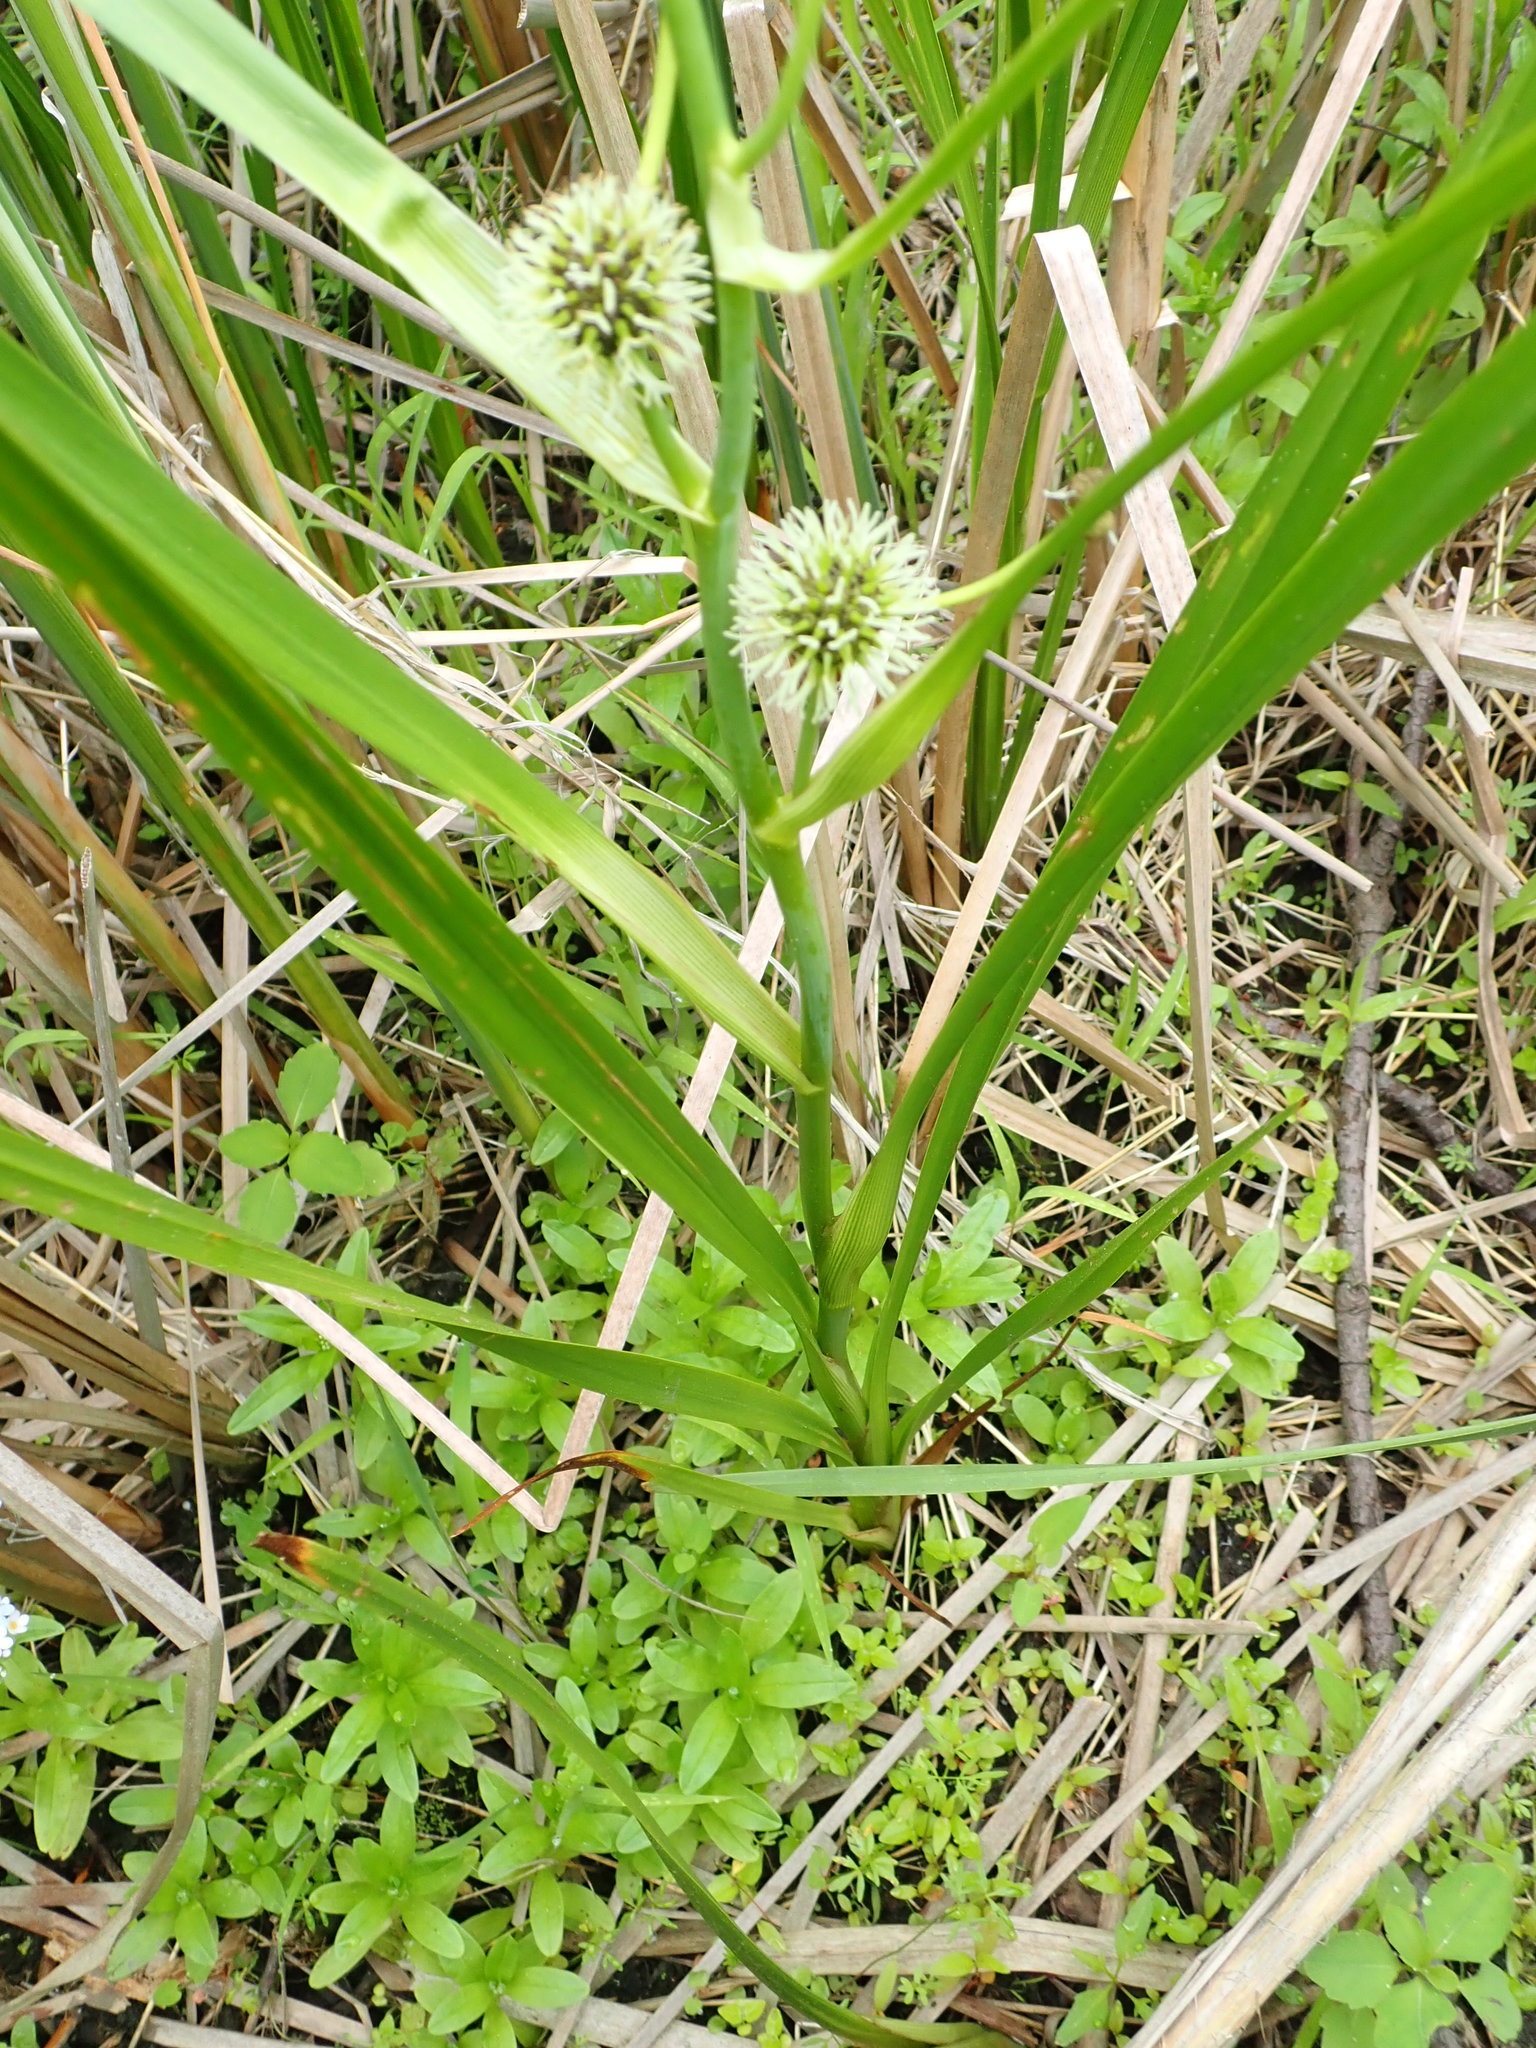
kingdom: Plantae
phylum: Tracheophyta
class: Liliopsida
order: Poales
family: Typhaceae
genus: Sparganium
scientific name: Sparganium eurycarpum
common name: Broad-fruited burreed
